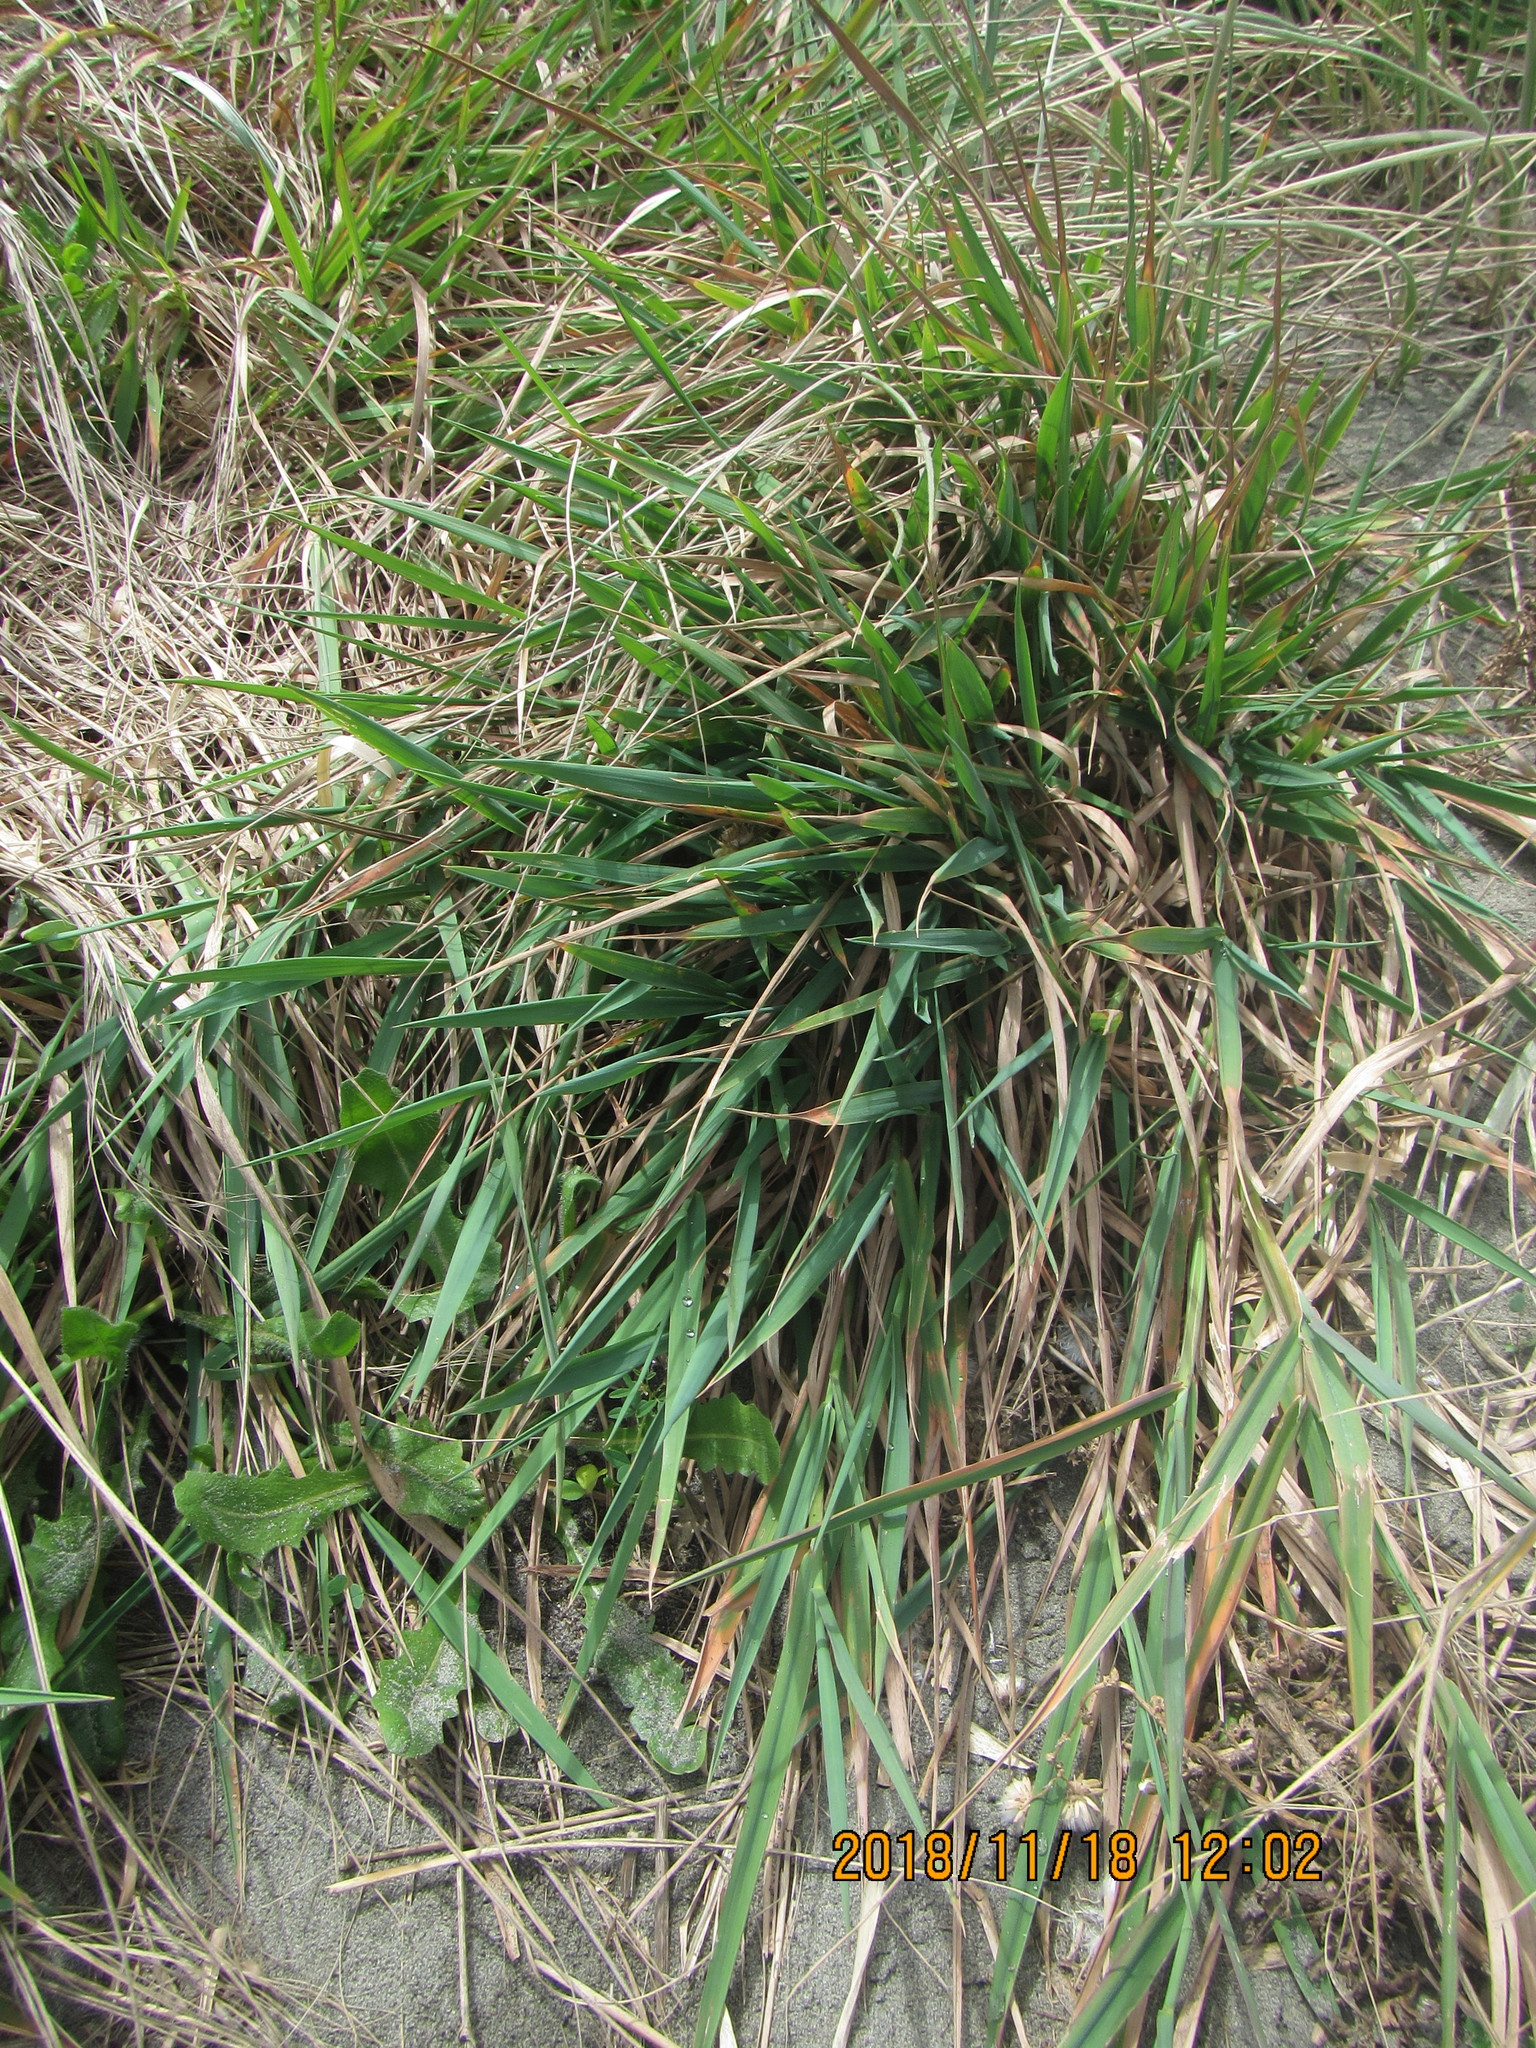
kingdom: Plantae
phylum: Tracheophyta
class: Liliopsida
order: Poales
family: Poaceae
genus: Lachnagrostis
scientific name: Lachnagrostis billardierei
